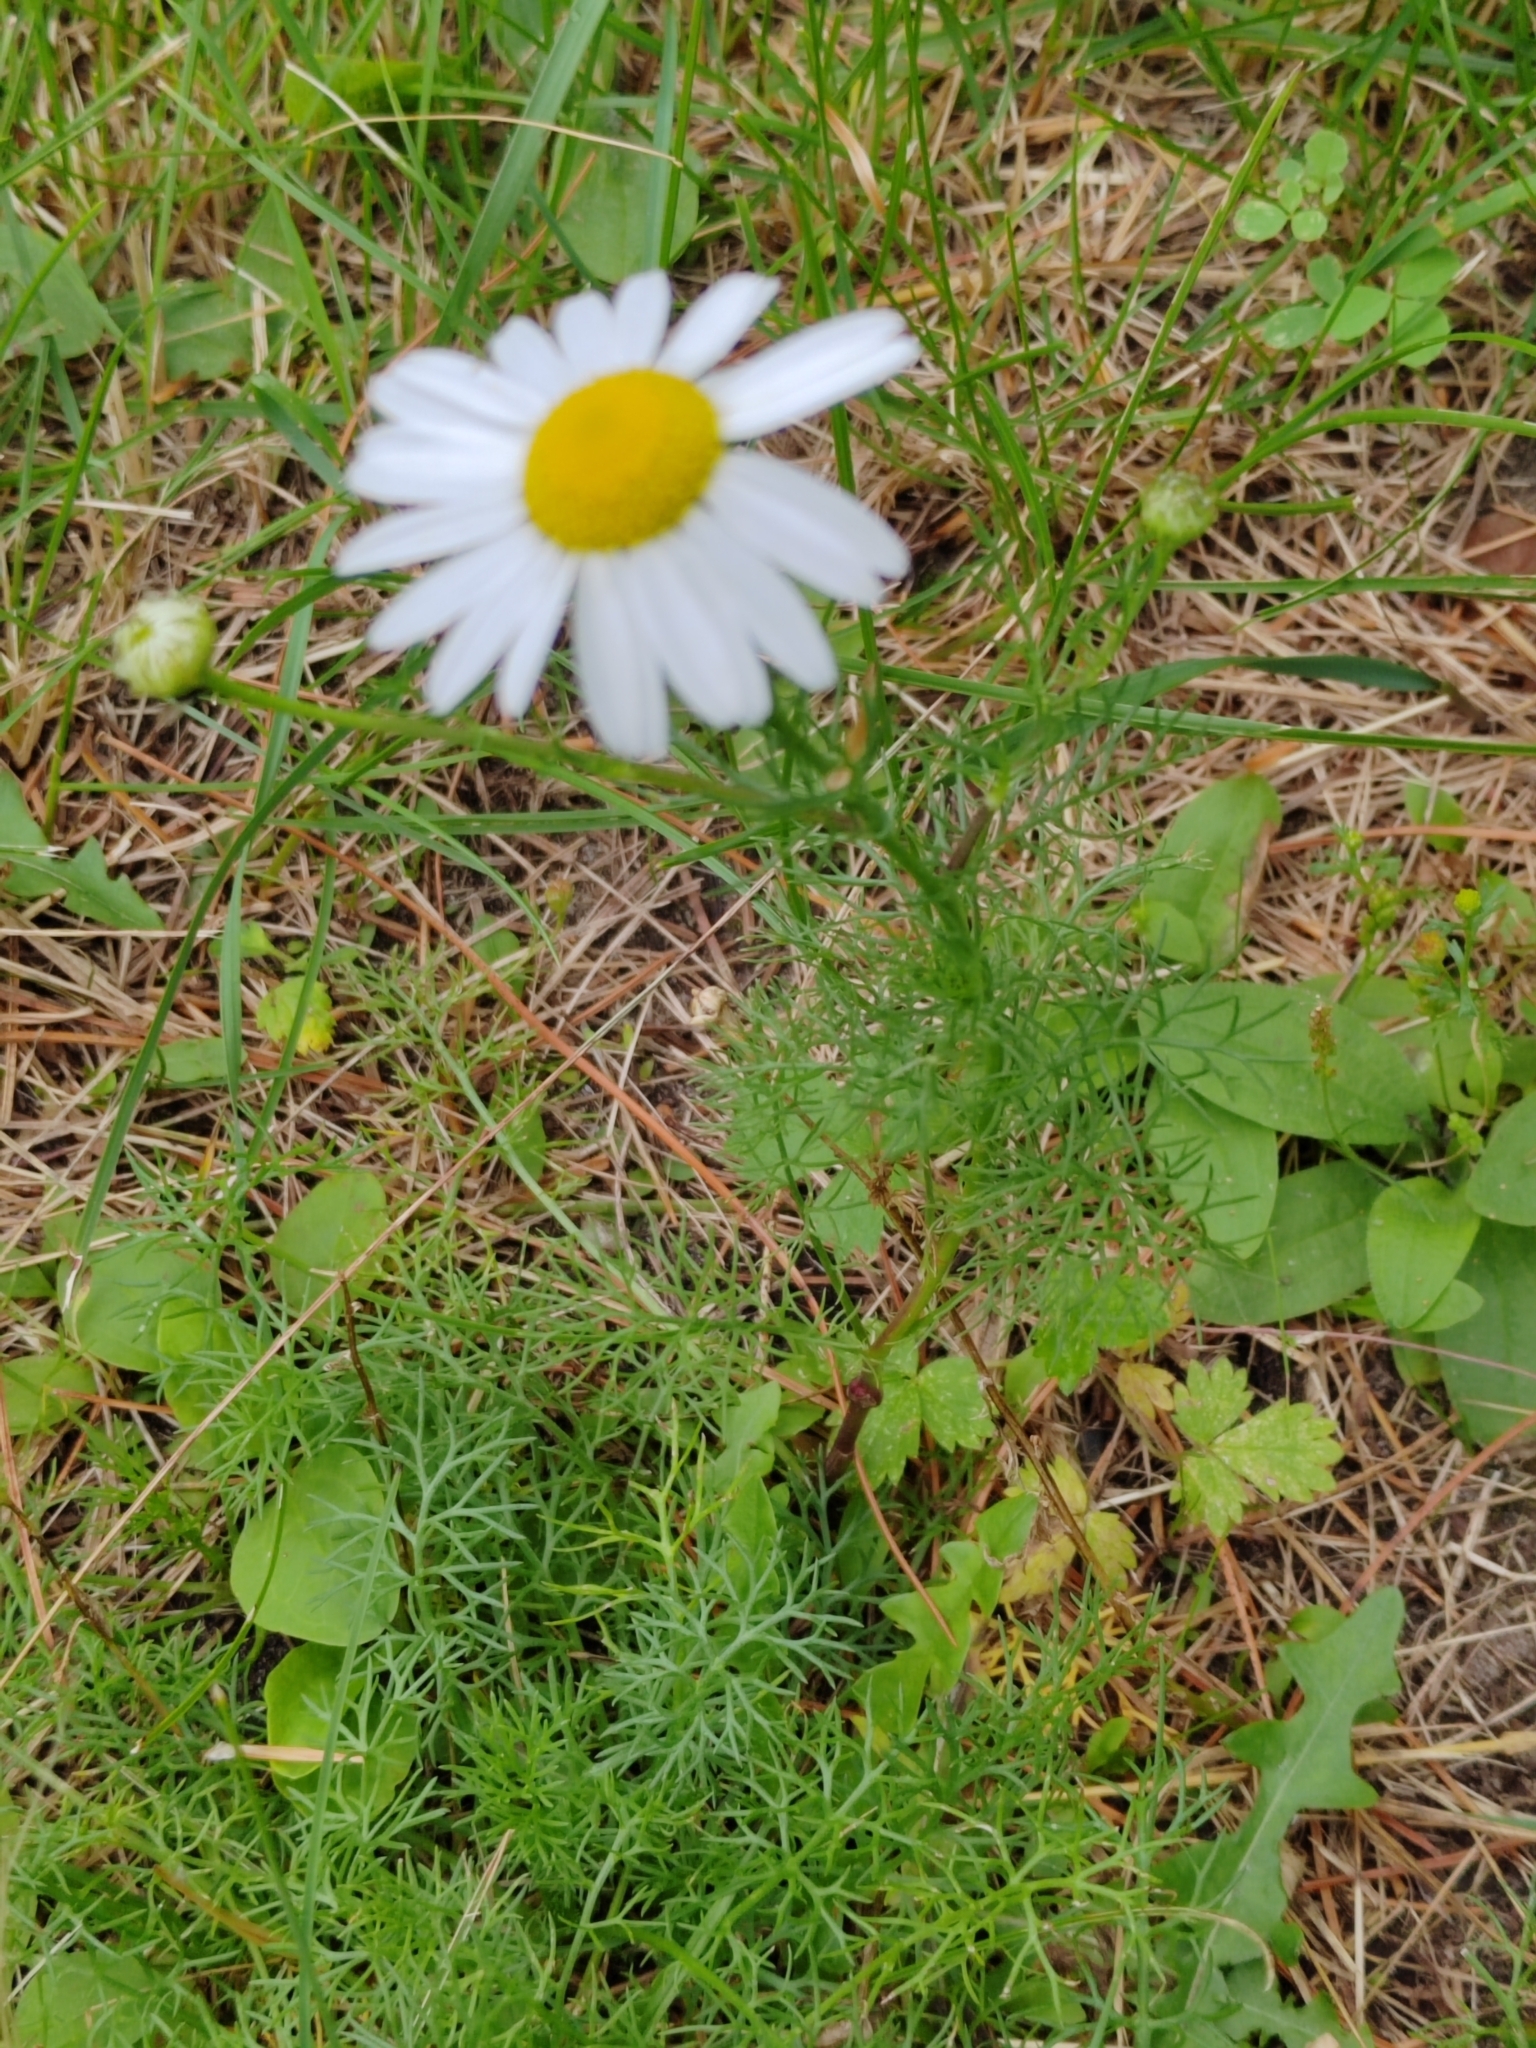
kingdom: Plantae
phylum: Tracheophyta
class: Magnoliopsida
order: Asterales
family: Asteraceae
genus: Tripleurospermum
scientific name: Tripleurospermum inodorum
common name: Scentless mayweed
